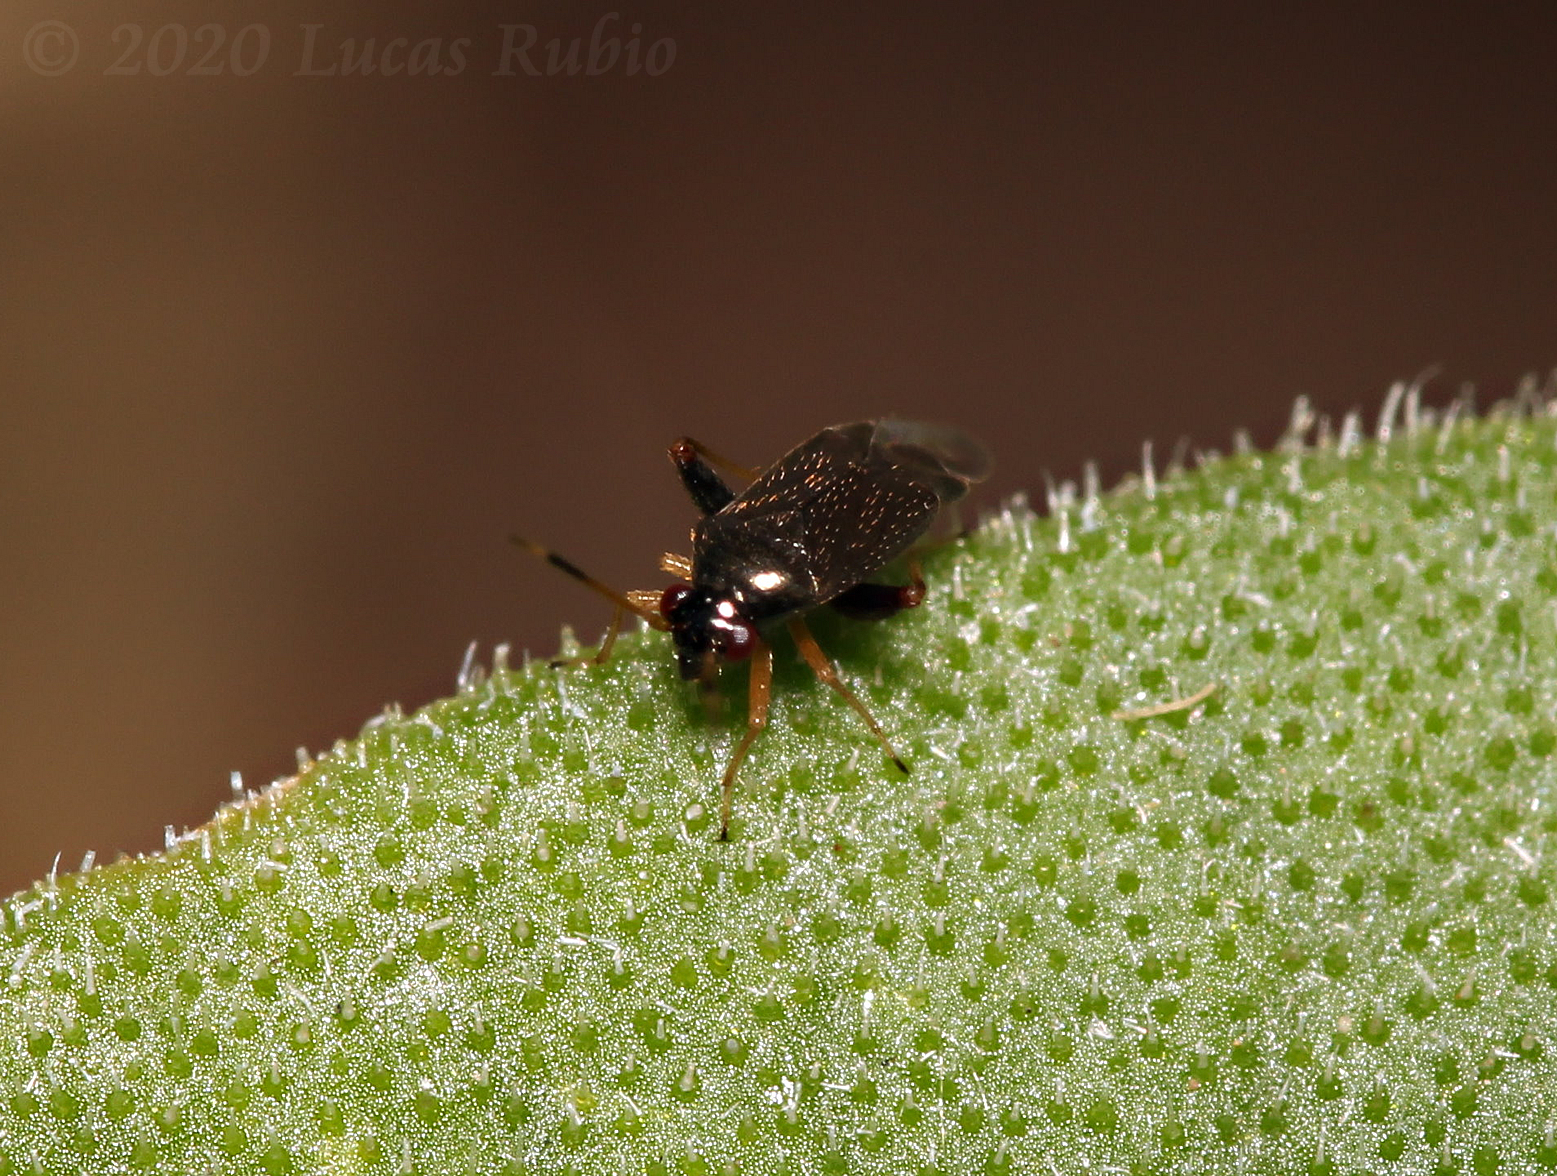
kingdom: Animalia
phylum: Arthropoda
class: Insecta
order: Hemiptera
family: Miridae
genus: Microtechnites
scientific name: Microtechnites spegazzinii
